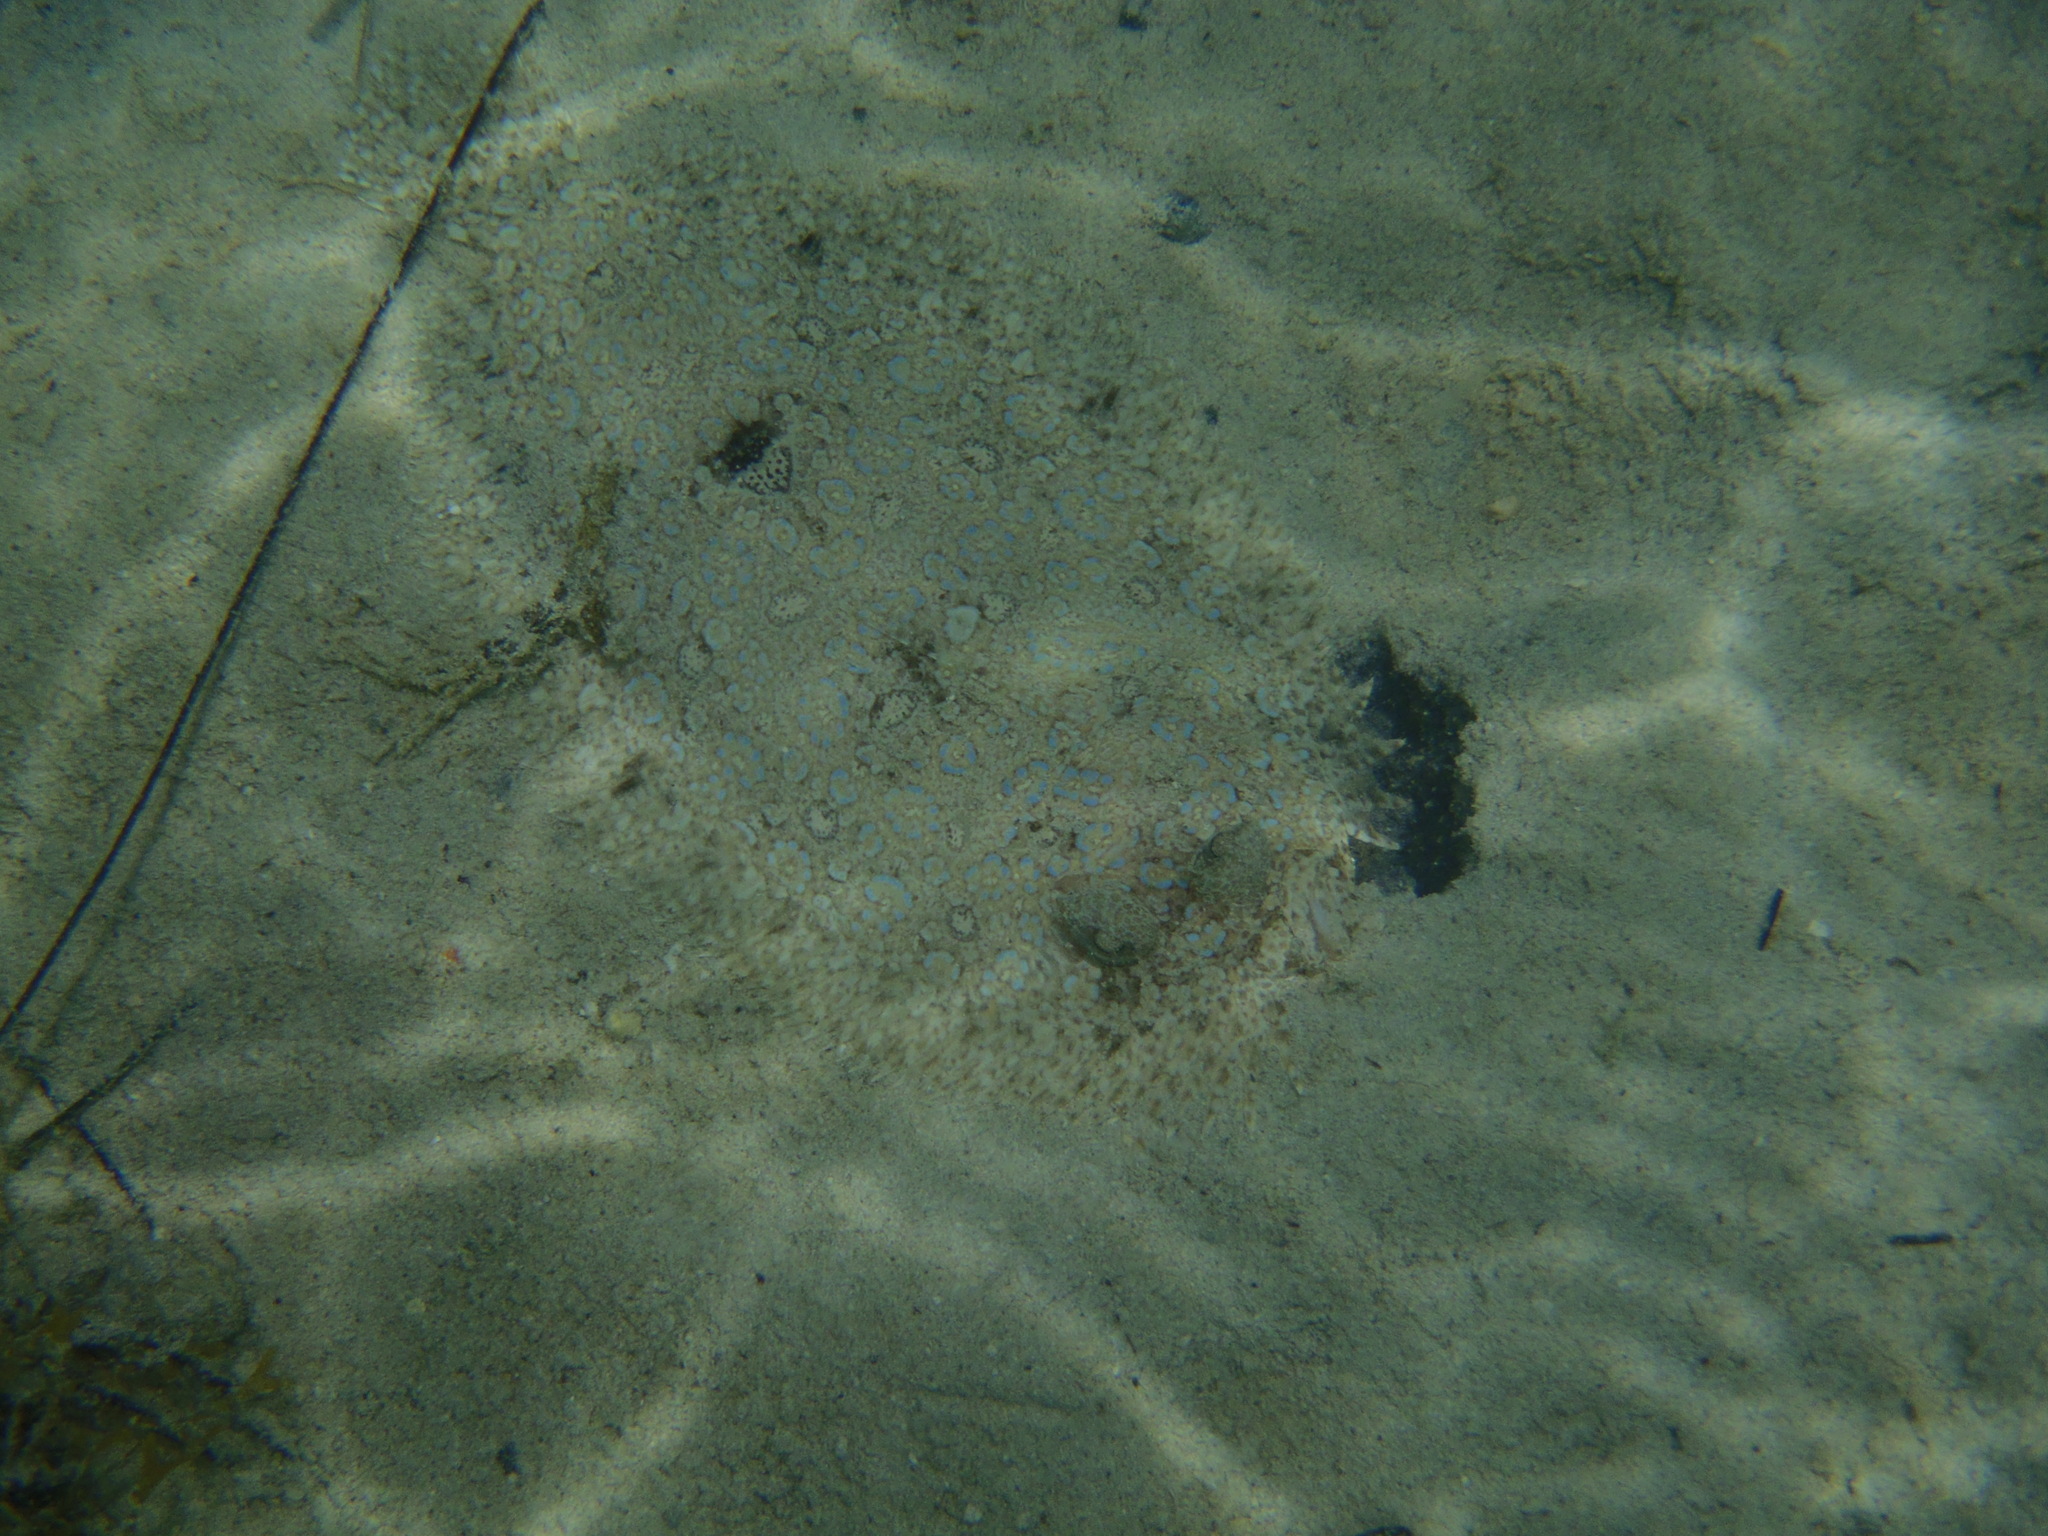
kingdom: Animalia
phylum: Chordata
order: Pleuronectiformes
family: Bothidae
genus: Bothus
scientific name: Bothus lunatus
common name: Peacock flounder
